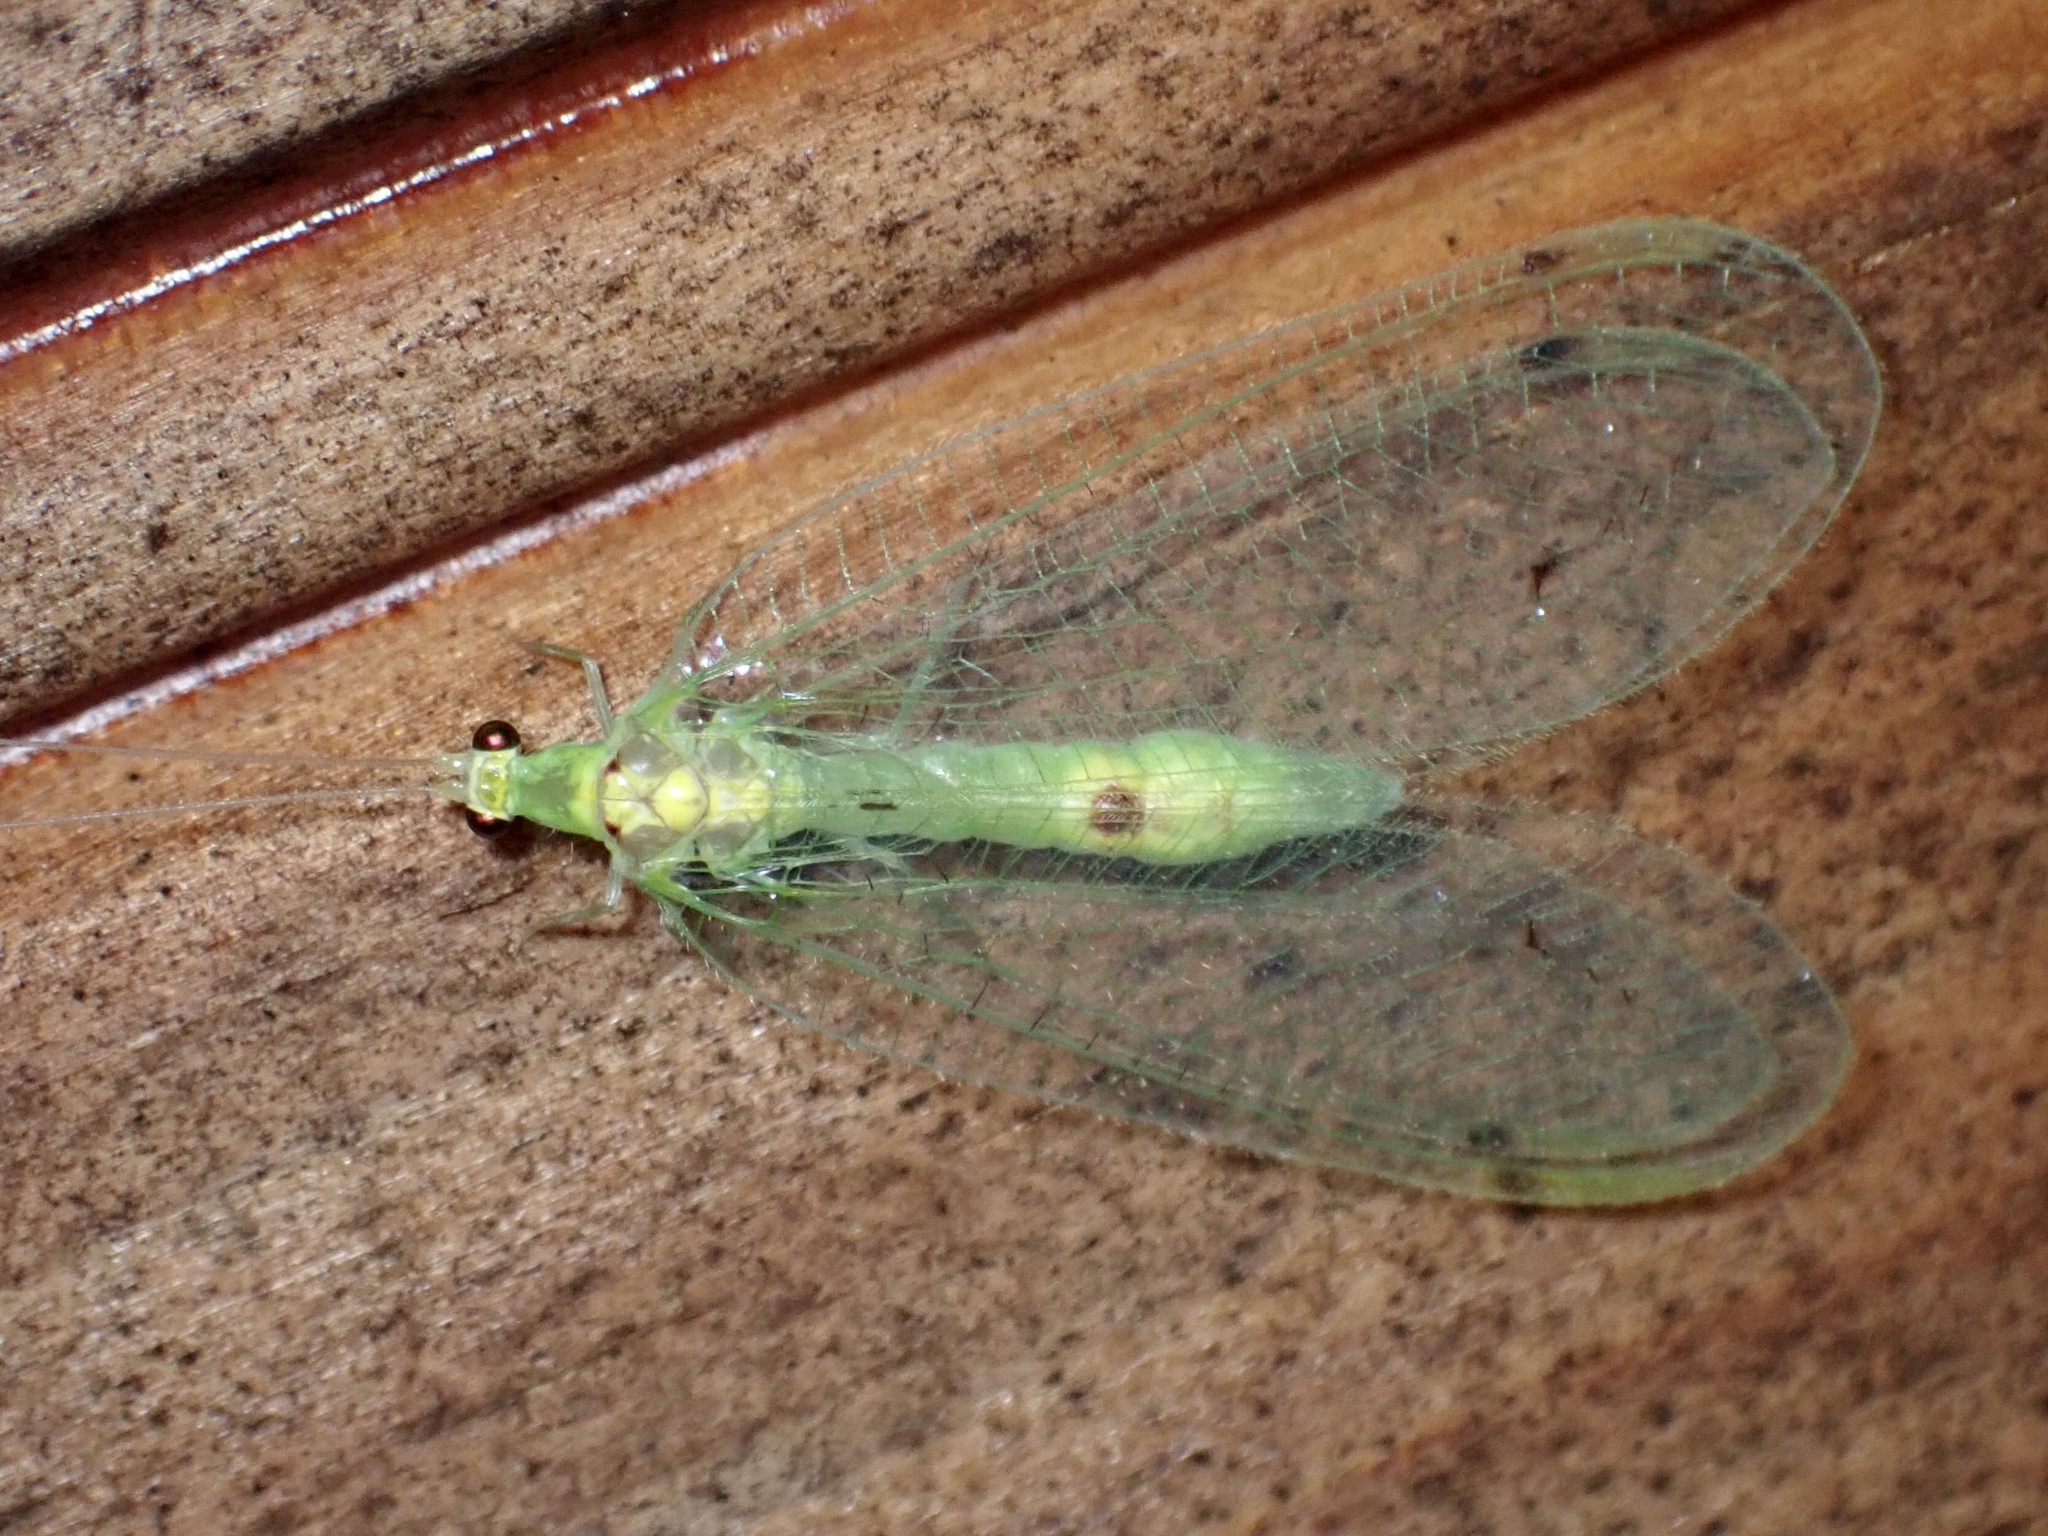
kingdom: Animalia
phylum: Arthropoda
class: Insecta
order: Neuroptera
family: Chrysopidae
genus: Leucochrysa
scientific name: Leucochrysa insularis
